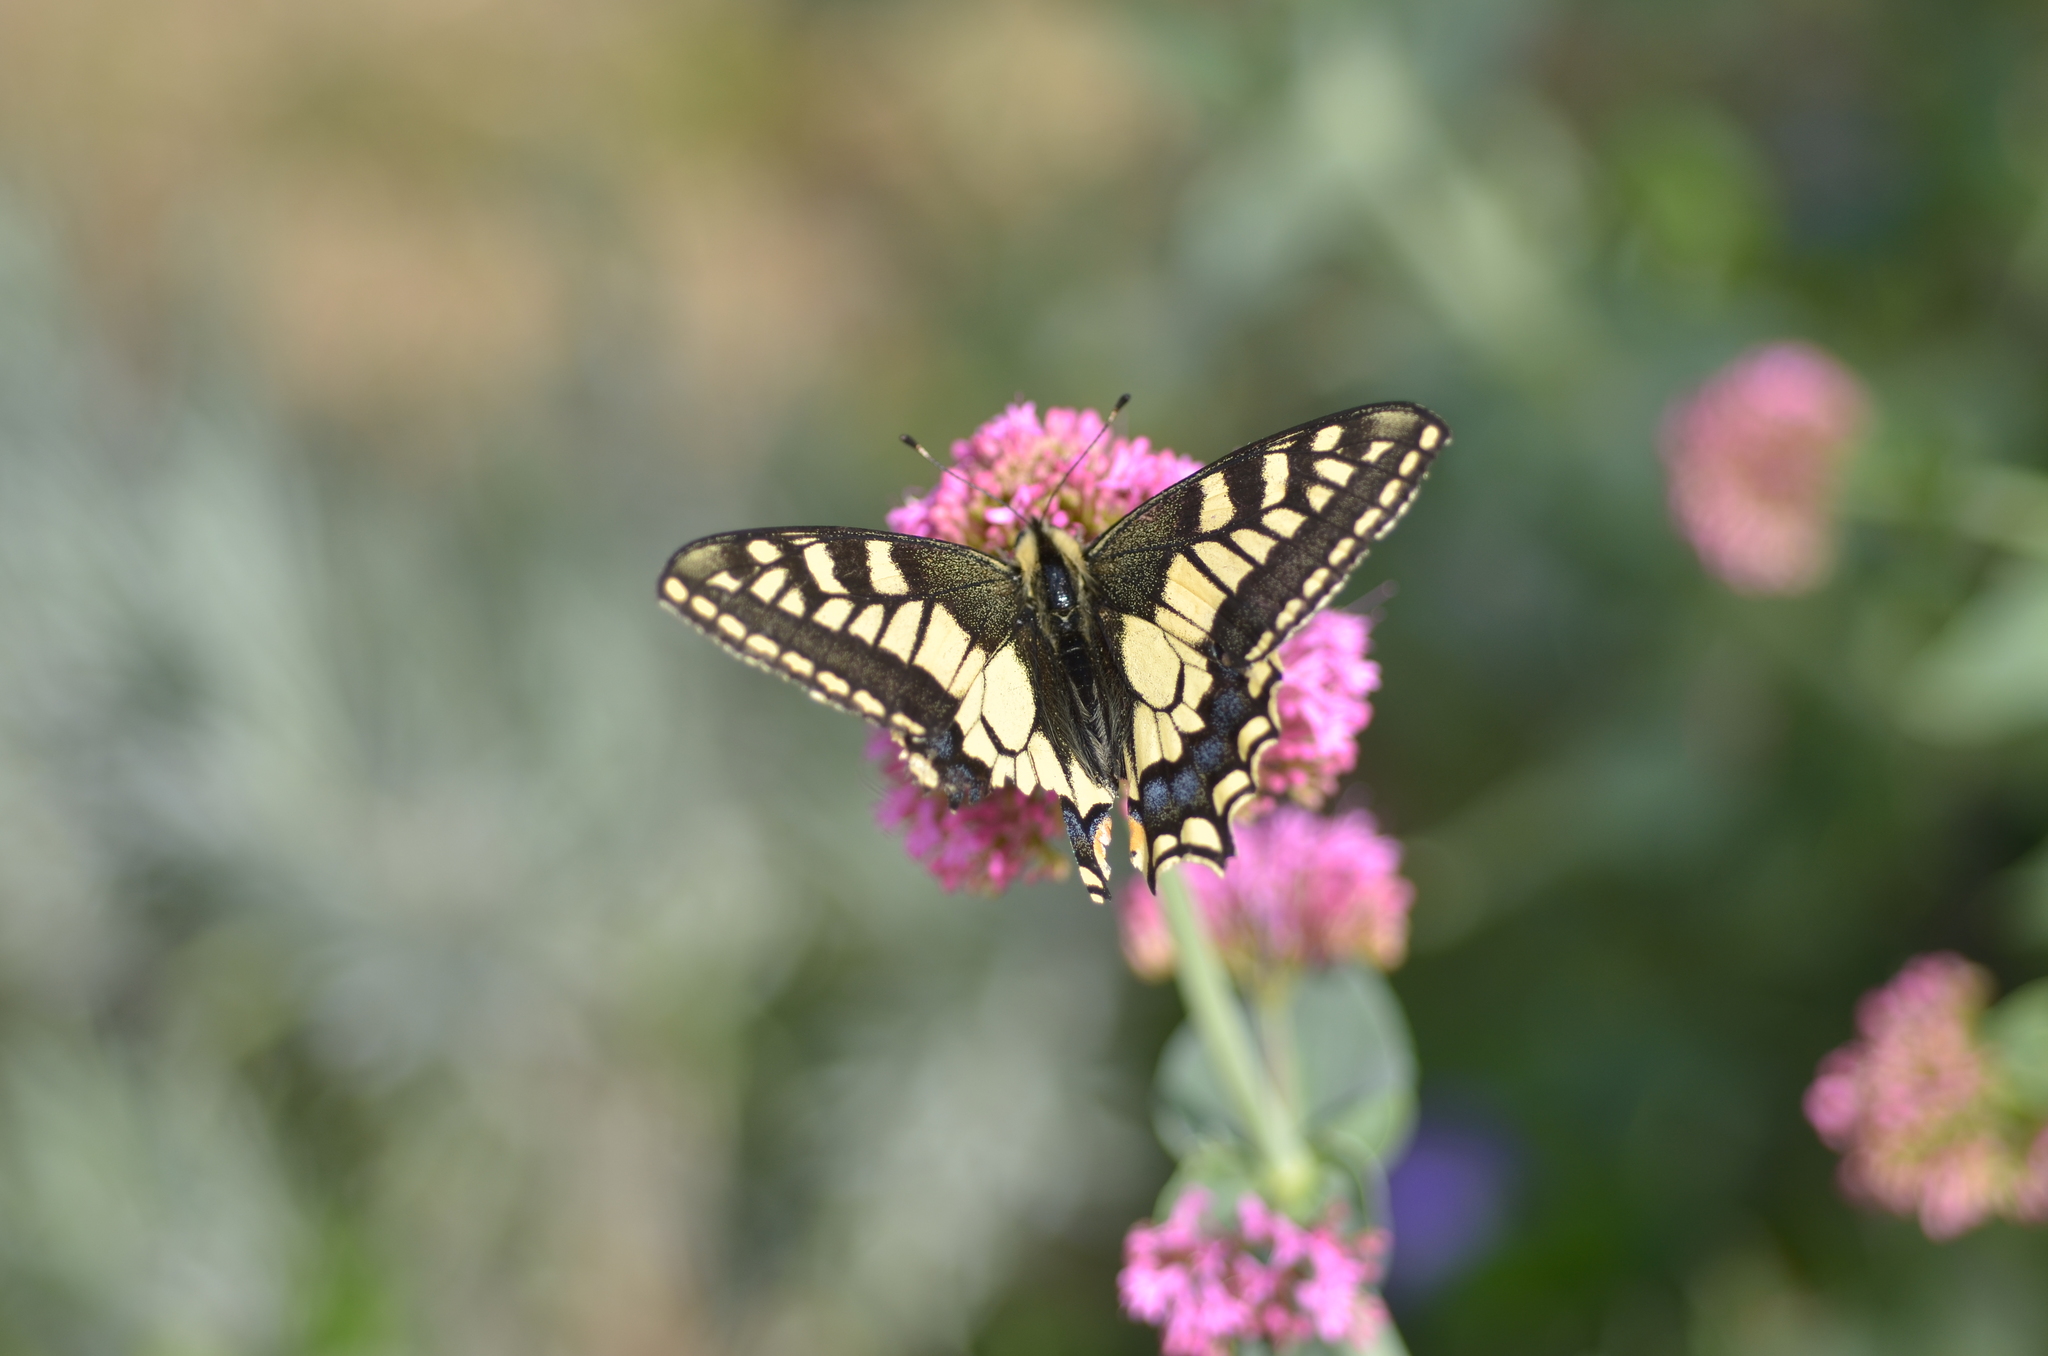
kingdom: Animalia
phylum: Arthropoda
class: Insecta
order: Lepidoptera
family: Papilionidae
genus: Papilio
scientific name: Papilio machaon
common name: Swallowtail
